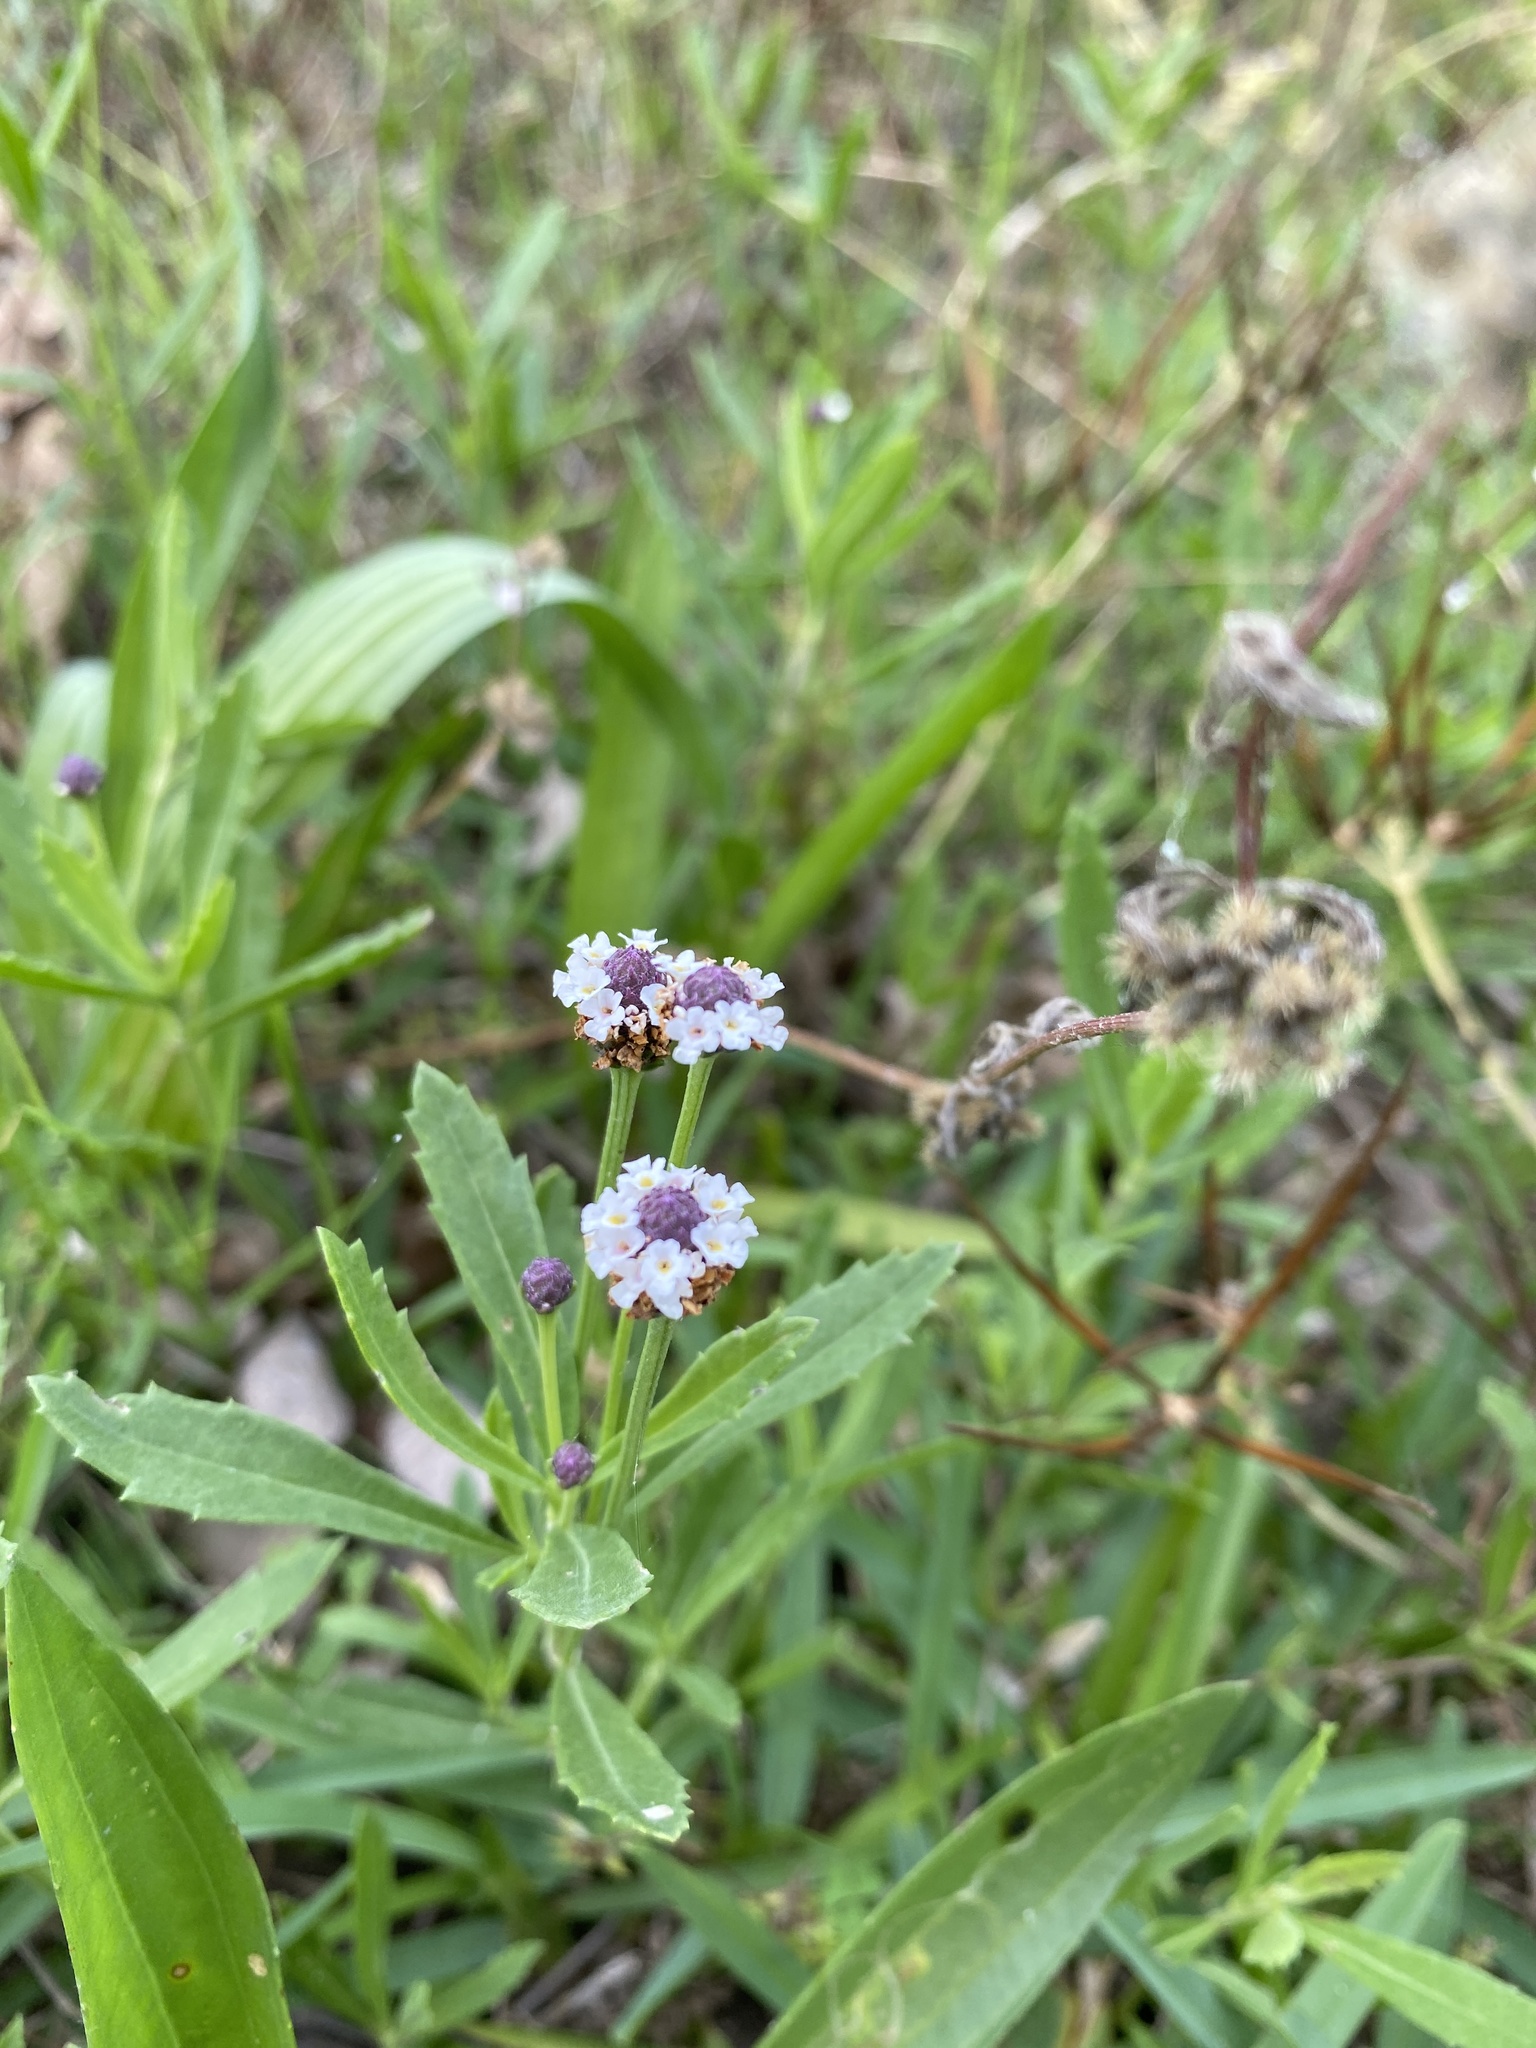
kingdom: Plantae
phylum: Tracheophyta
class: Magnoliopsida
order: Lamiales
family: Verbenaceae
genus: Phyla
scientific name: Phyla nodiflora
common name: Frogfruit
